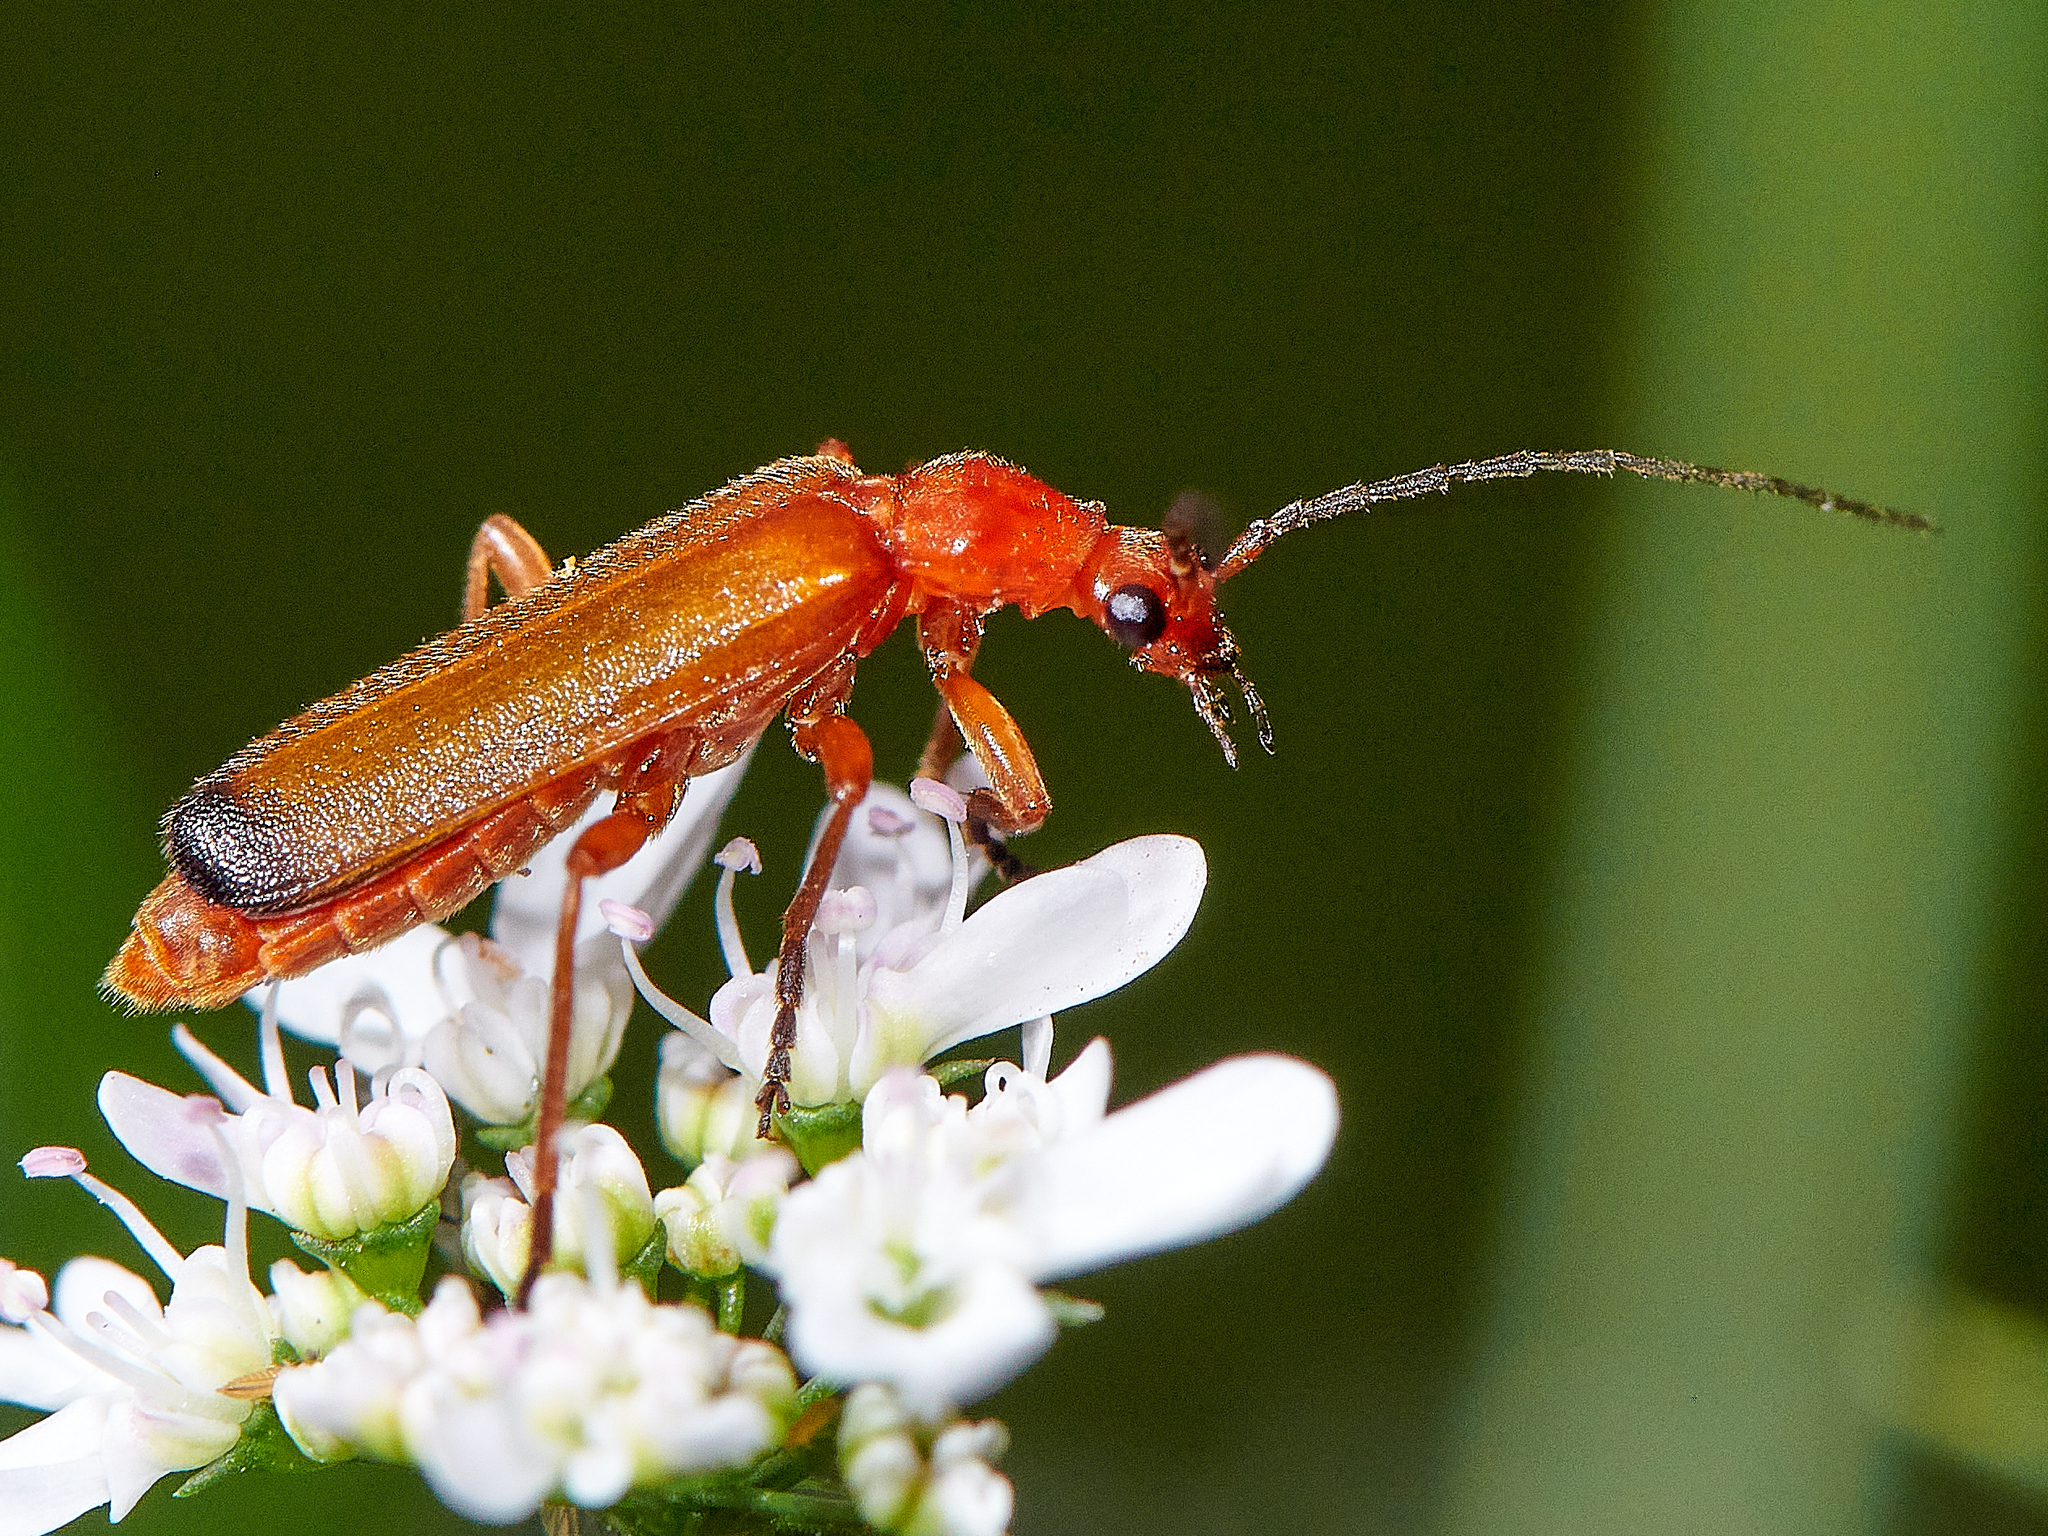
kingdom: Animalia
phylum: Arthropoda
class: Insecta
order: Coleoptera
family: Cantharidae
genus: Rhagonycha
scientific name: Rhagonycha fulva
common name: Common red soldier beetle
